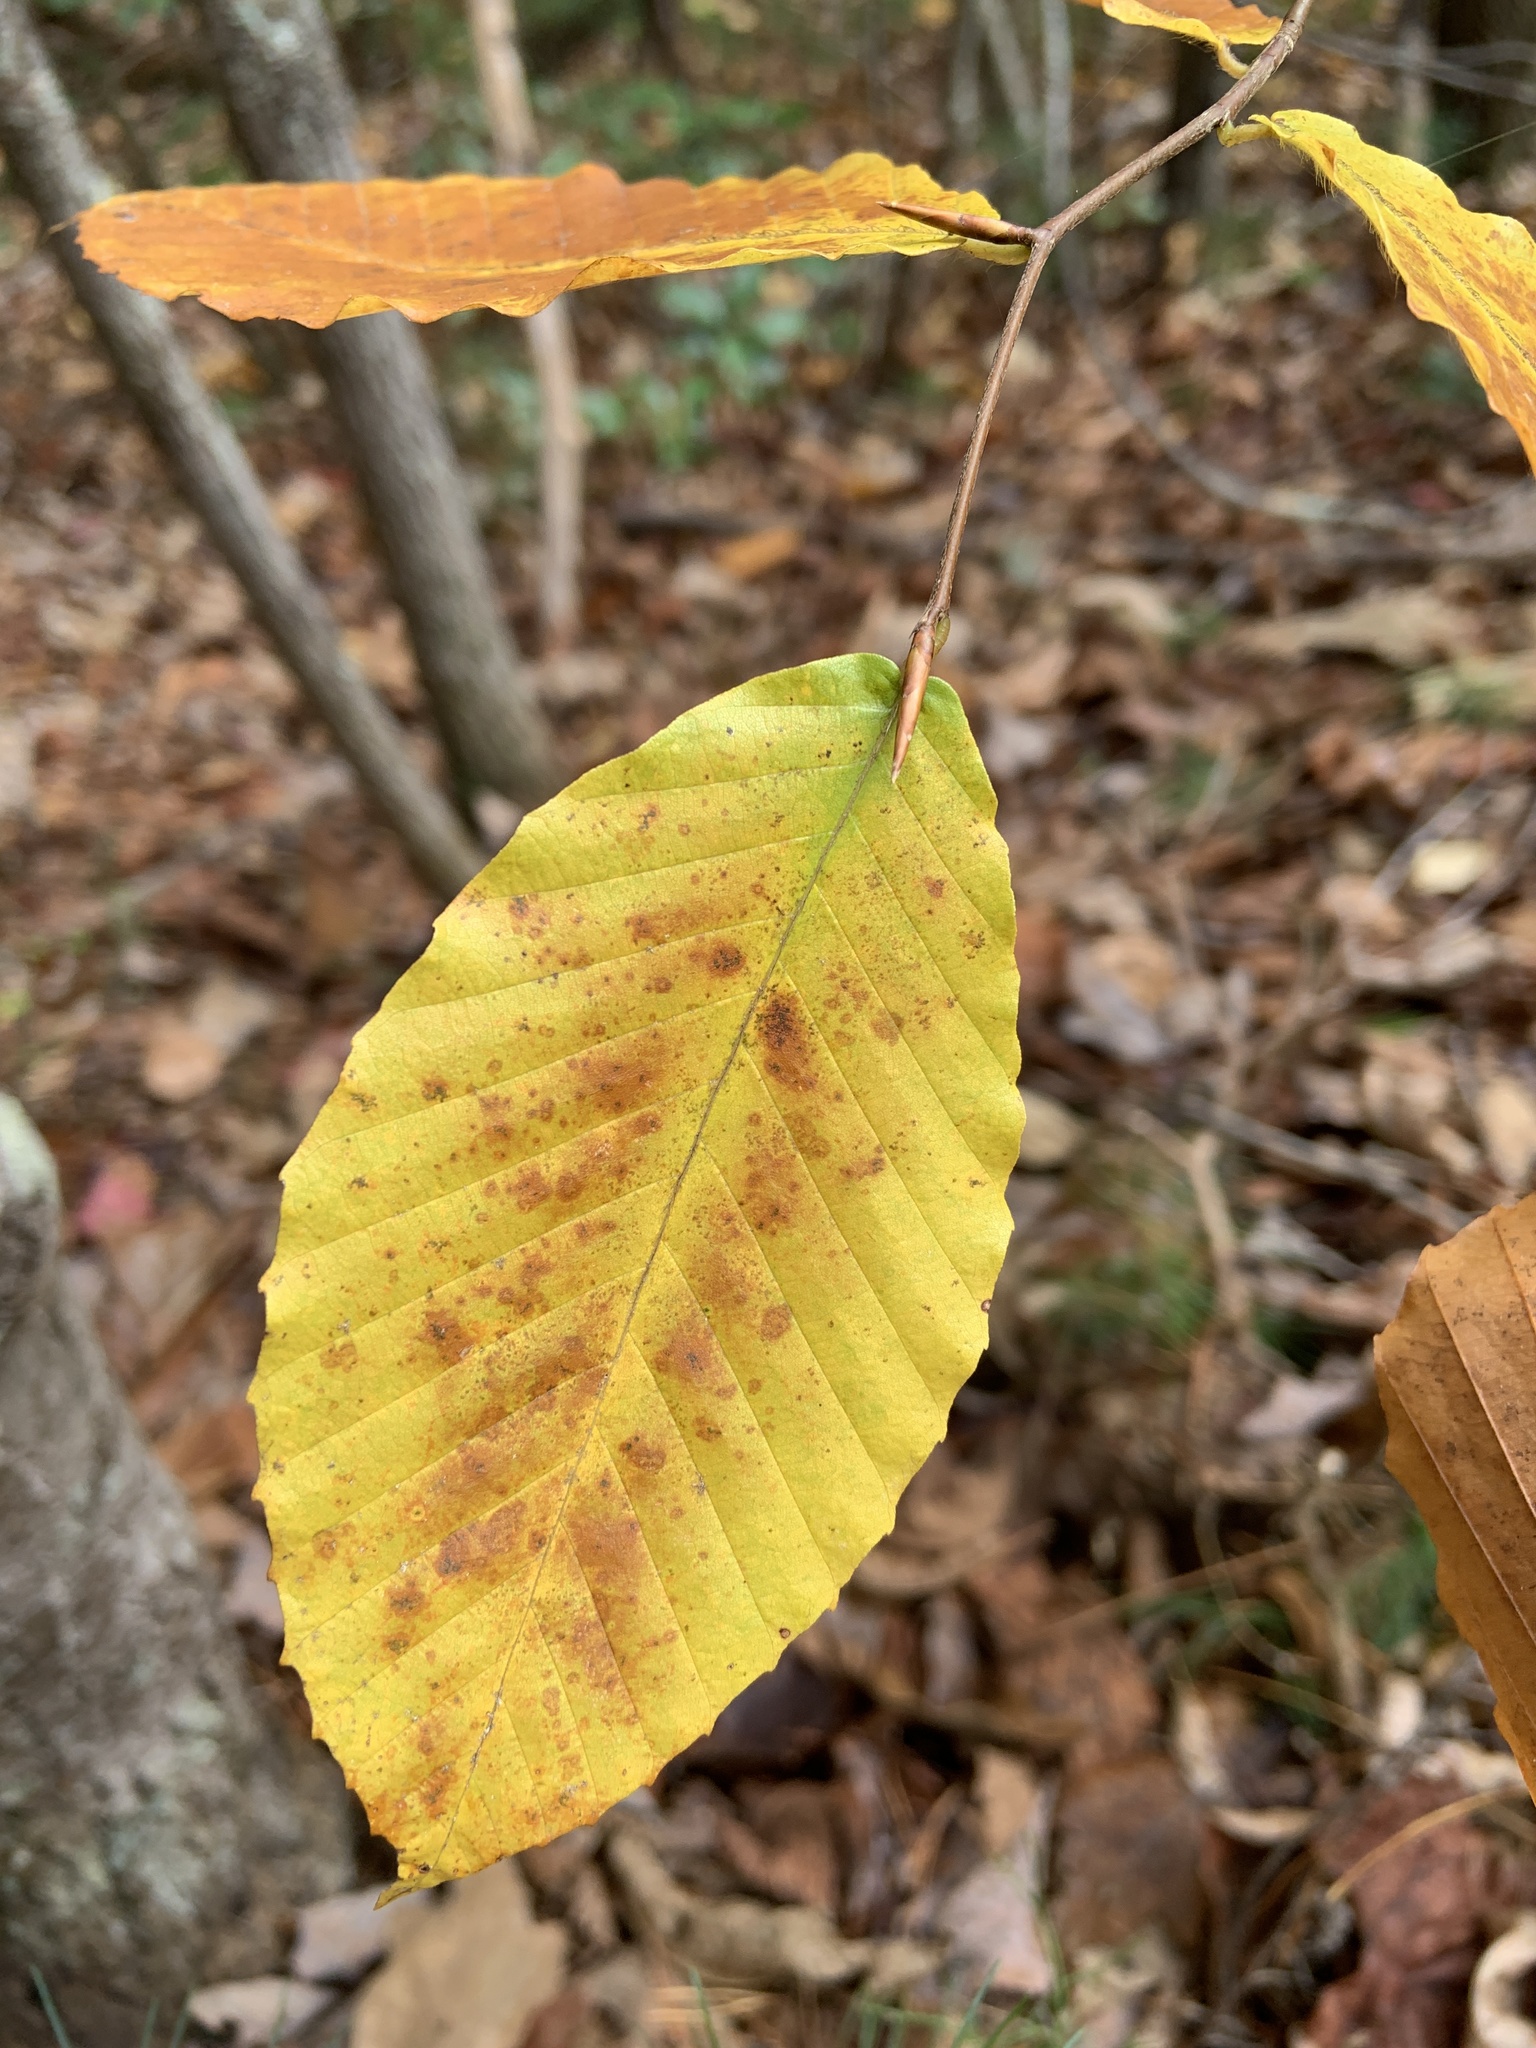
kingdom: Plantae
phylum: Tracheophyta
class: Magnoliopsida
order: Fagales
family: Fagaceae
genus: Fagus
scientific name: Fagus grandifolia
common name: American beech
